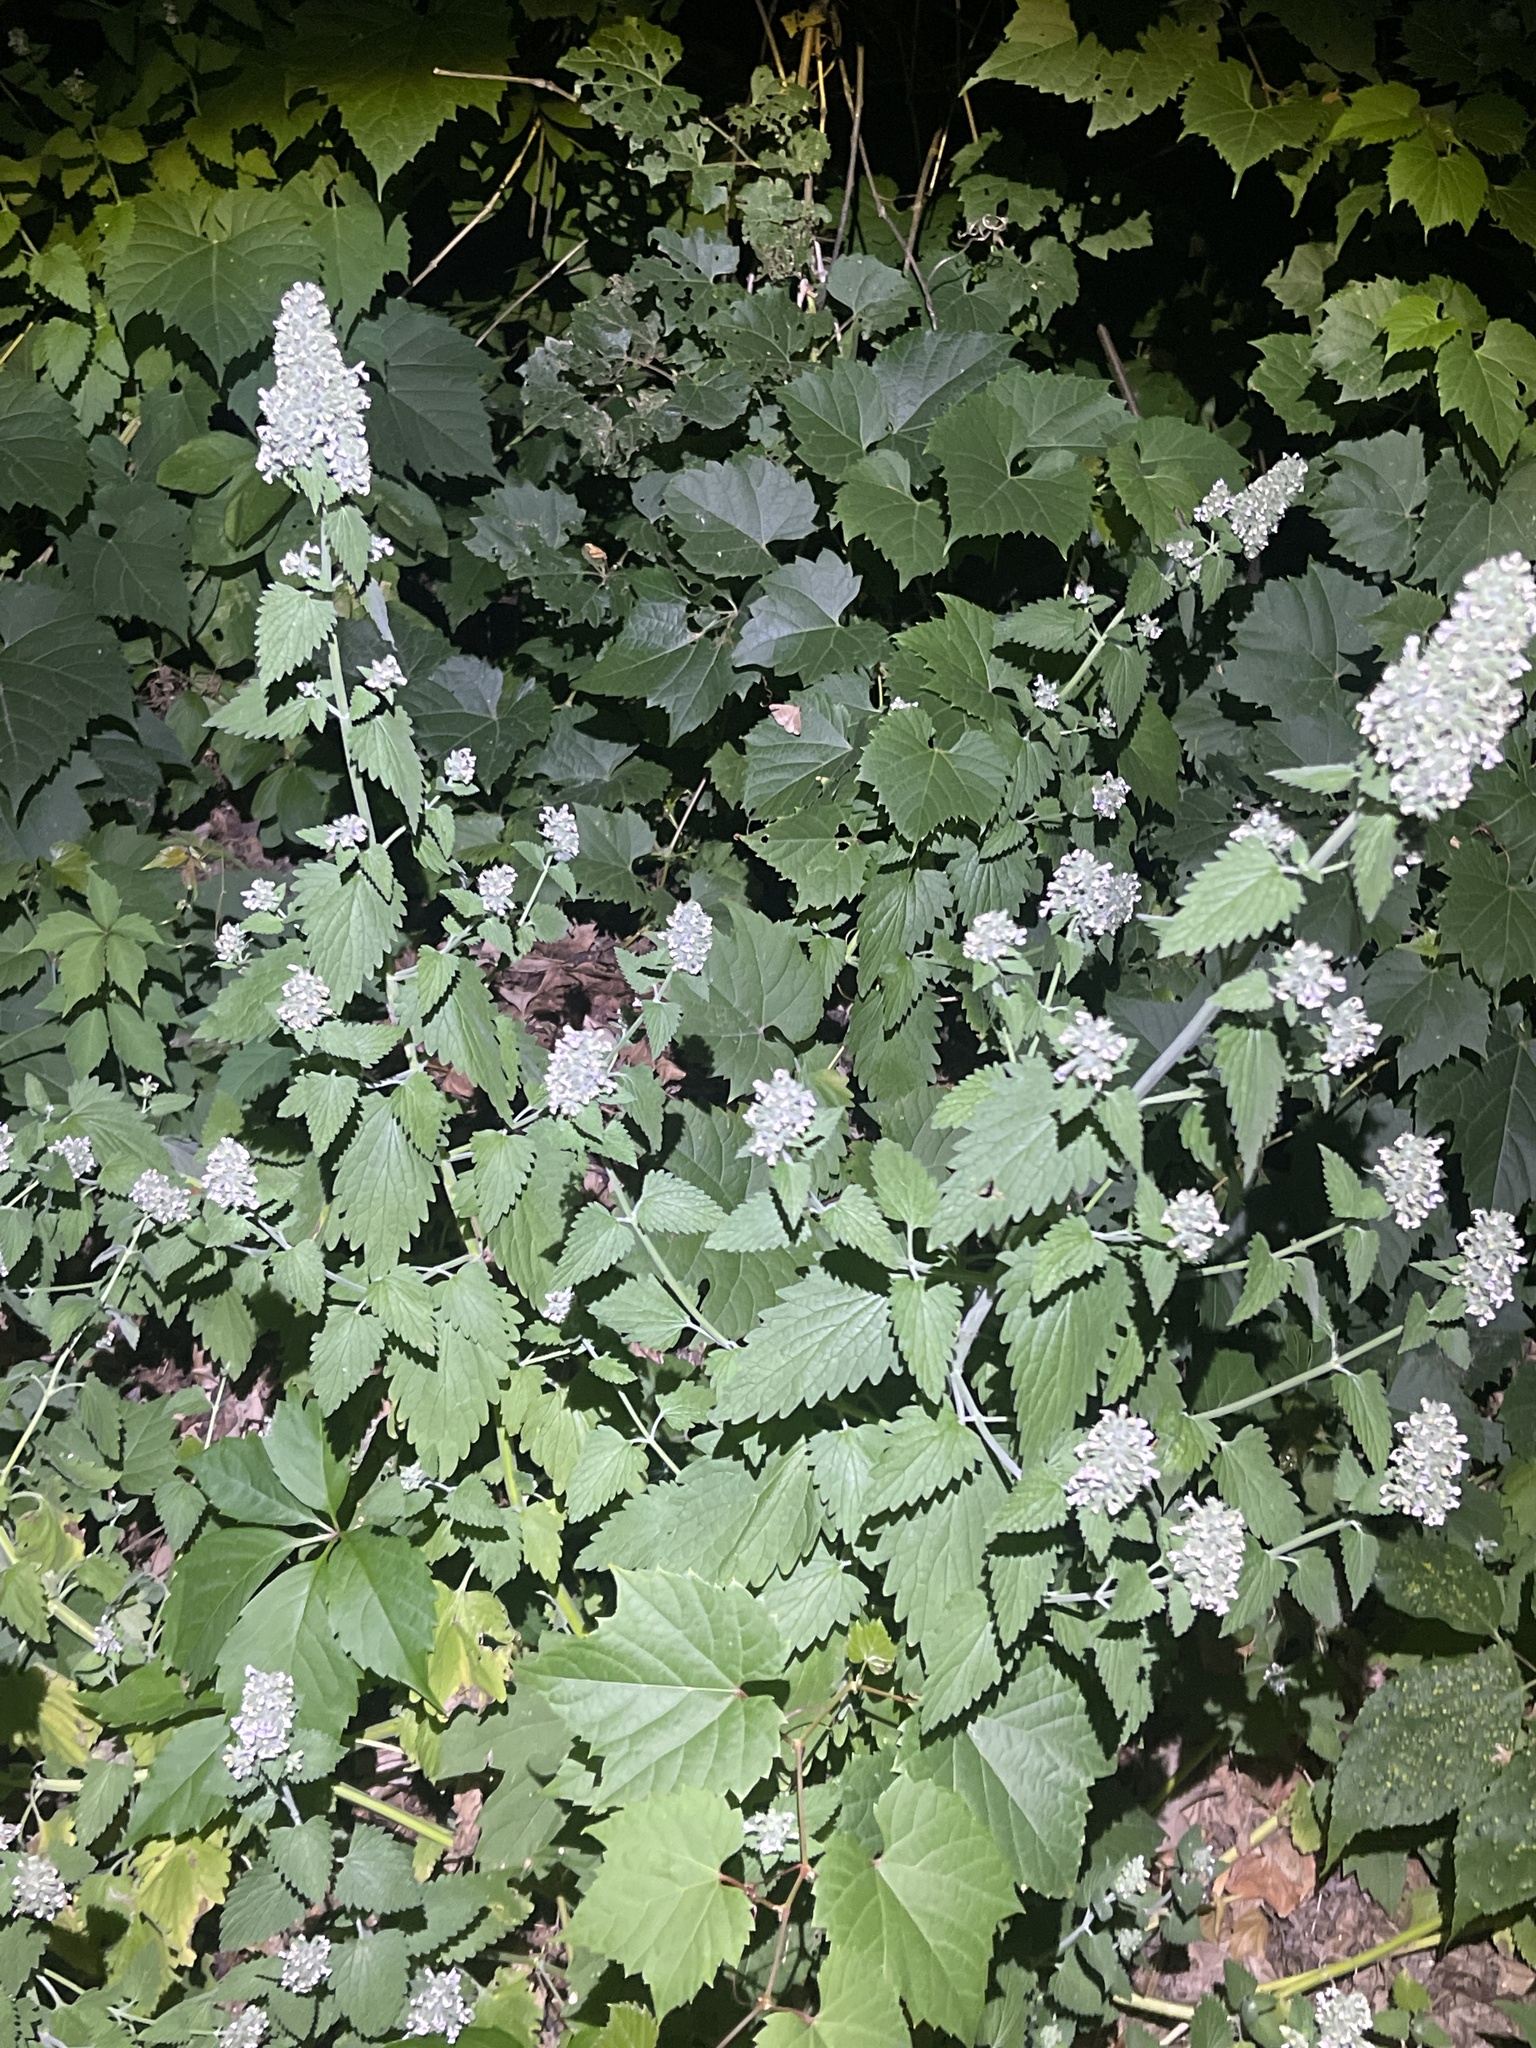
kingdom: Plantae
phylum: Tracheophyta
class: Magnoliopsida
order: Lamiales
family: Lamiaceae
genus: Nepeta
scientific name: Nepeta cataria
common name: Catnip
